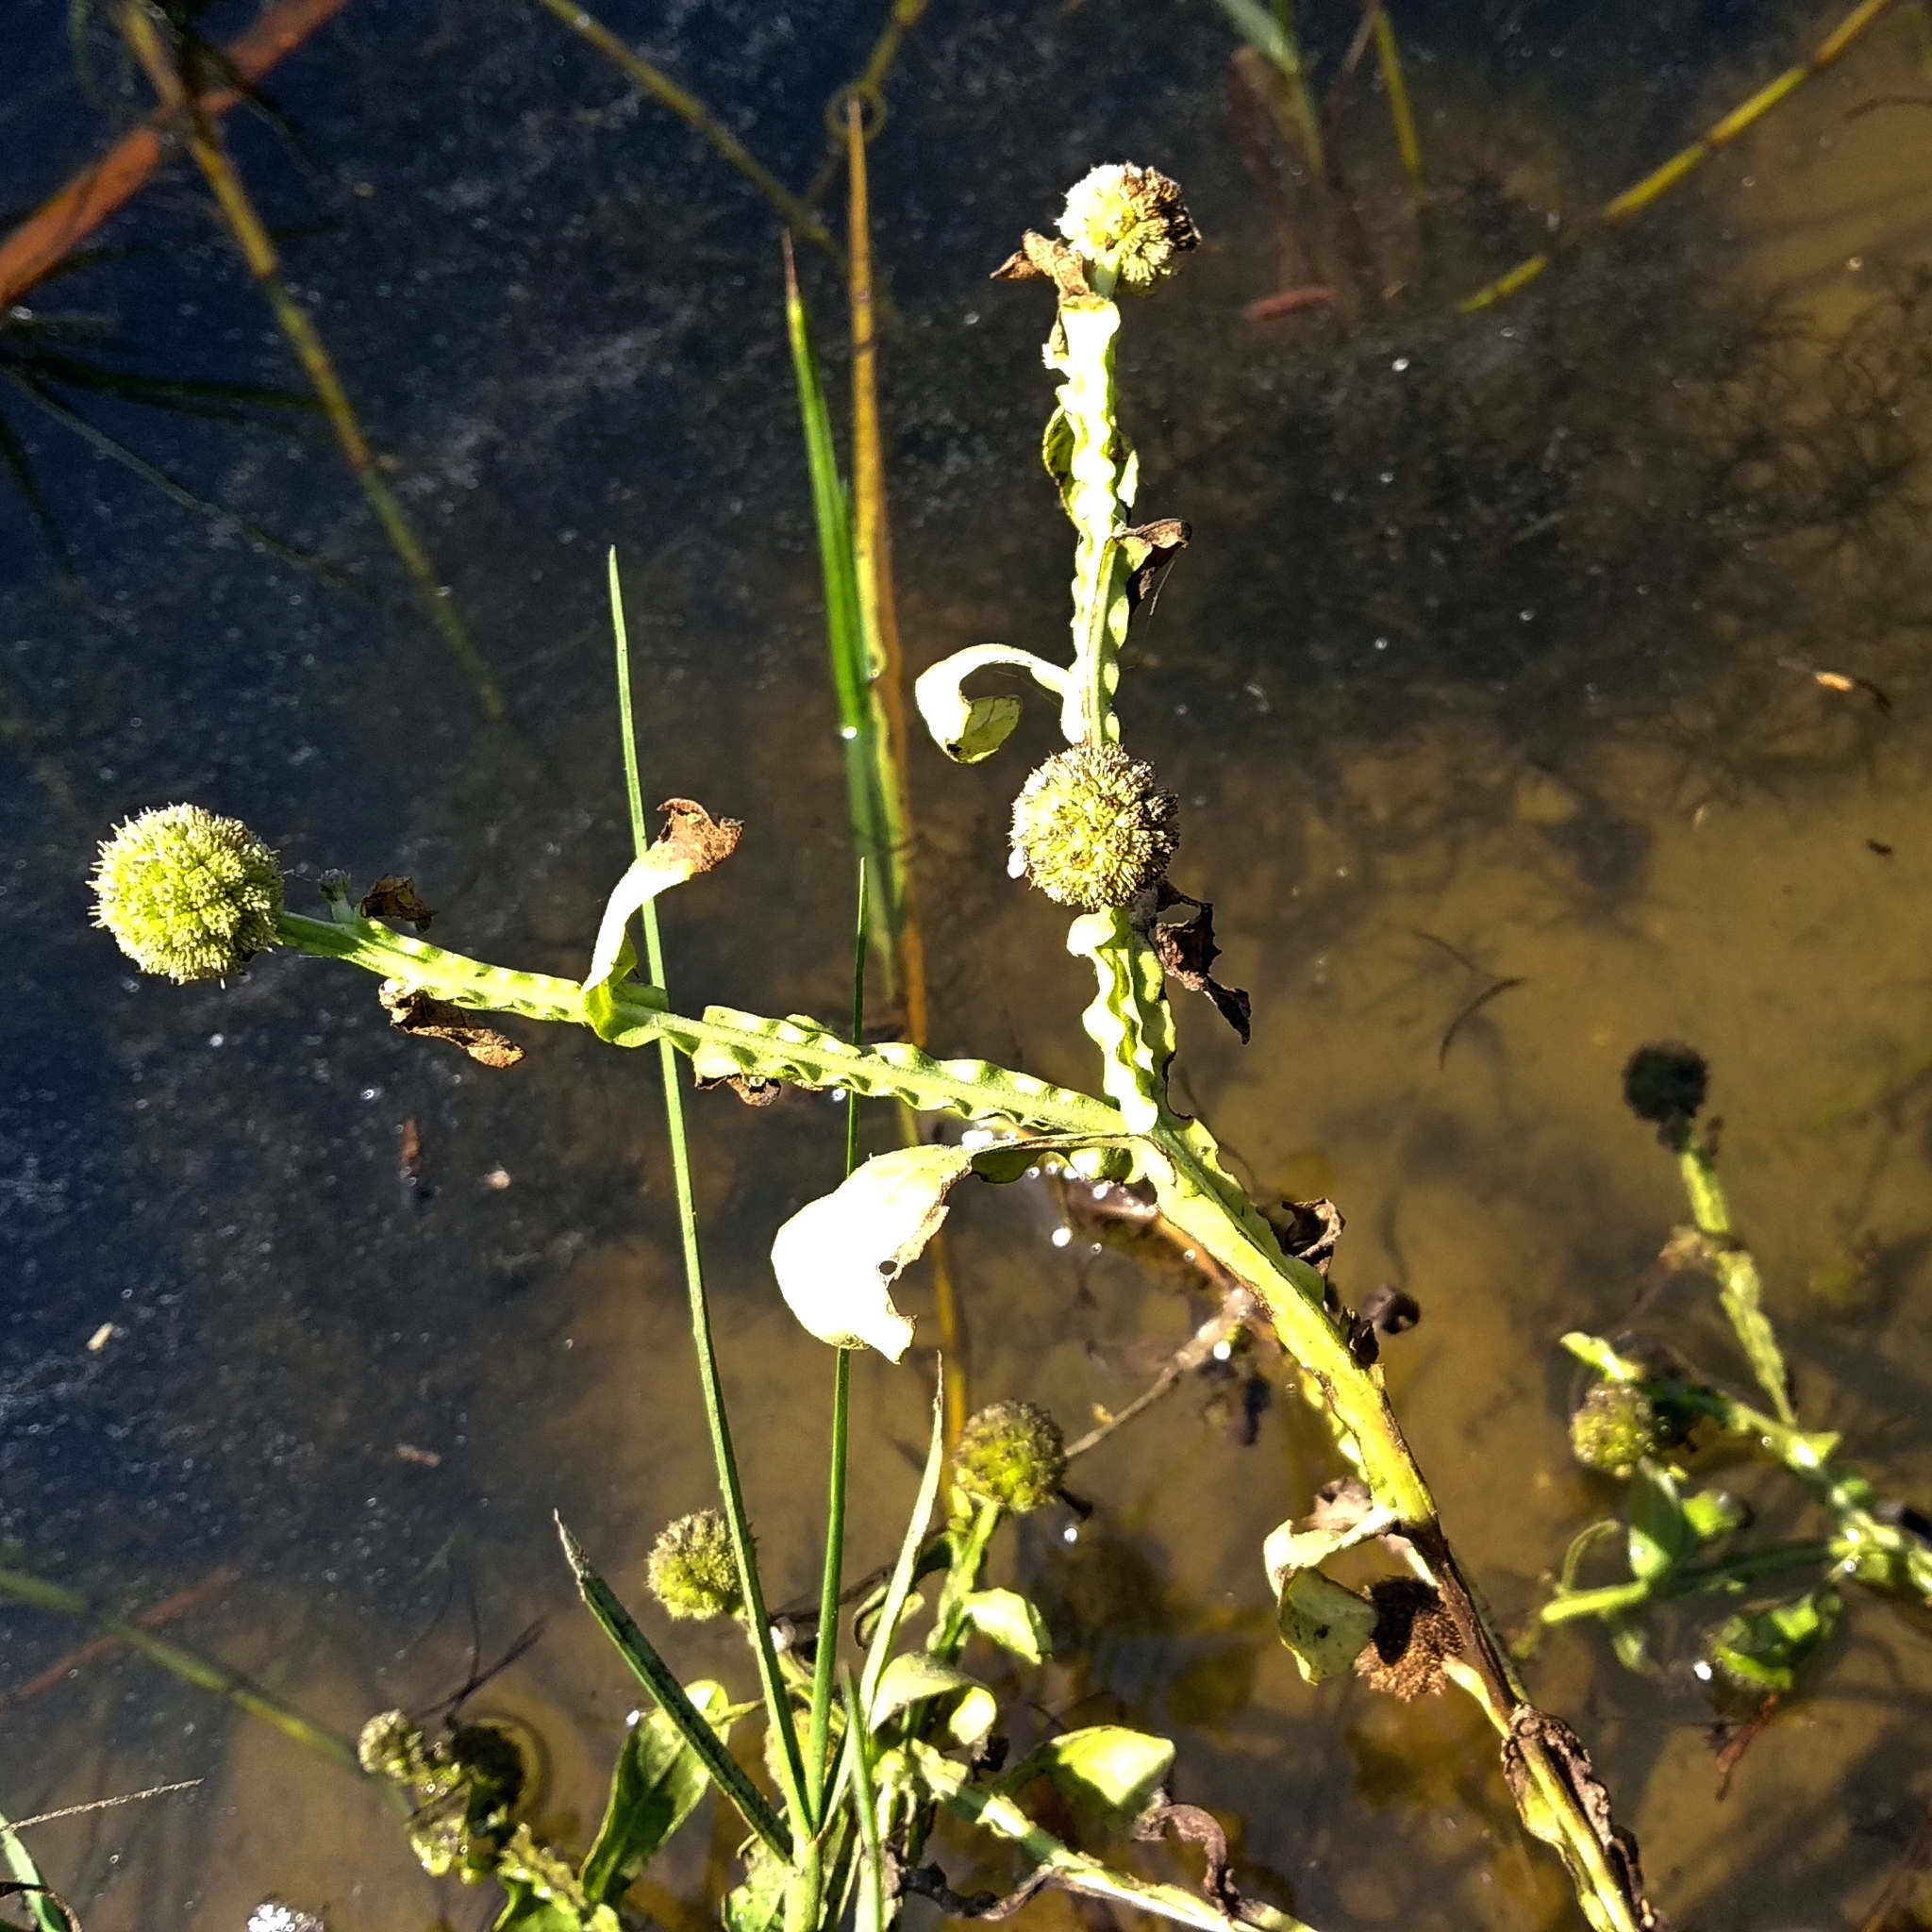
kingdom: Plantae
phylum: Tracheophyta
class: Magnoliopsida
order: Asterales
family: Asteraceae
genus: Sphaeranthus
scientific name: Sphaeranthus africanus
